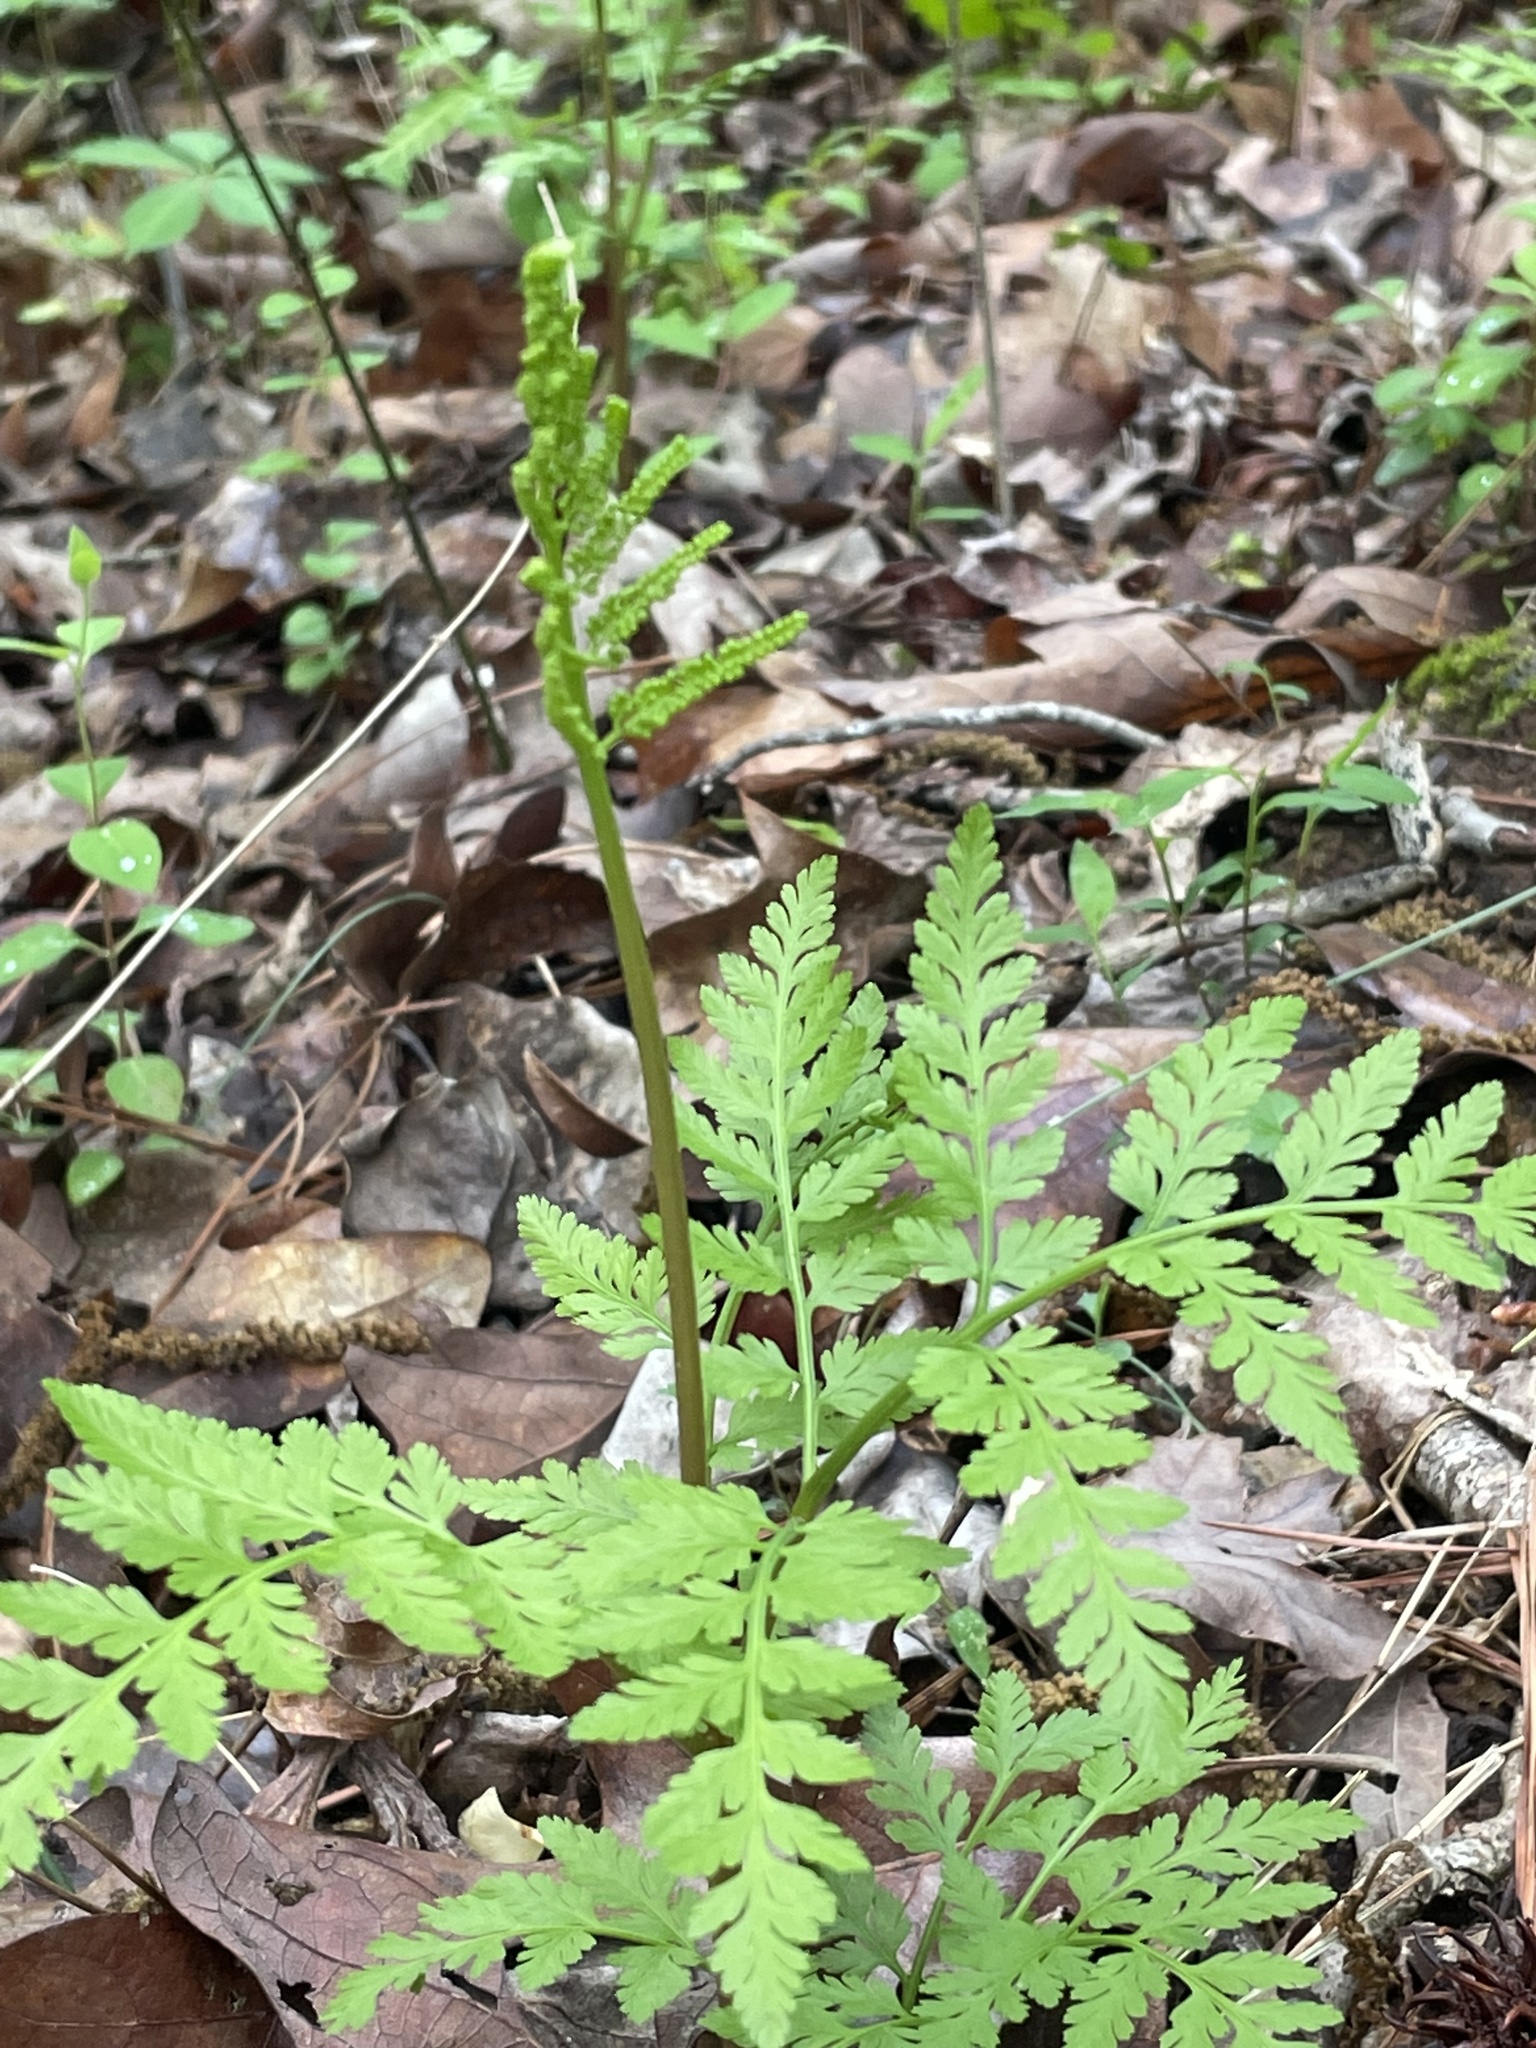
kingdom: Plantae
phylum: Tracheophyta
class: Polypodiopsida
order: Ophioglossales
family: Ophioglossaceae
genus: Botrypus
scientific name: Botrypus virginianus
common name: Common grapefern
